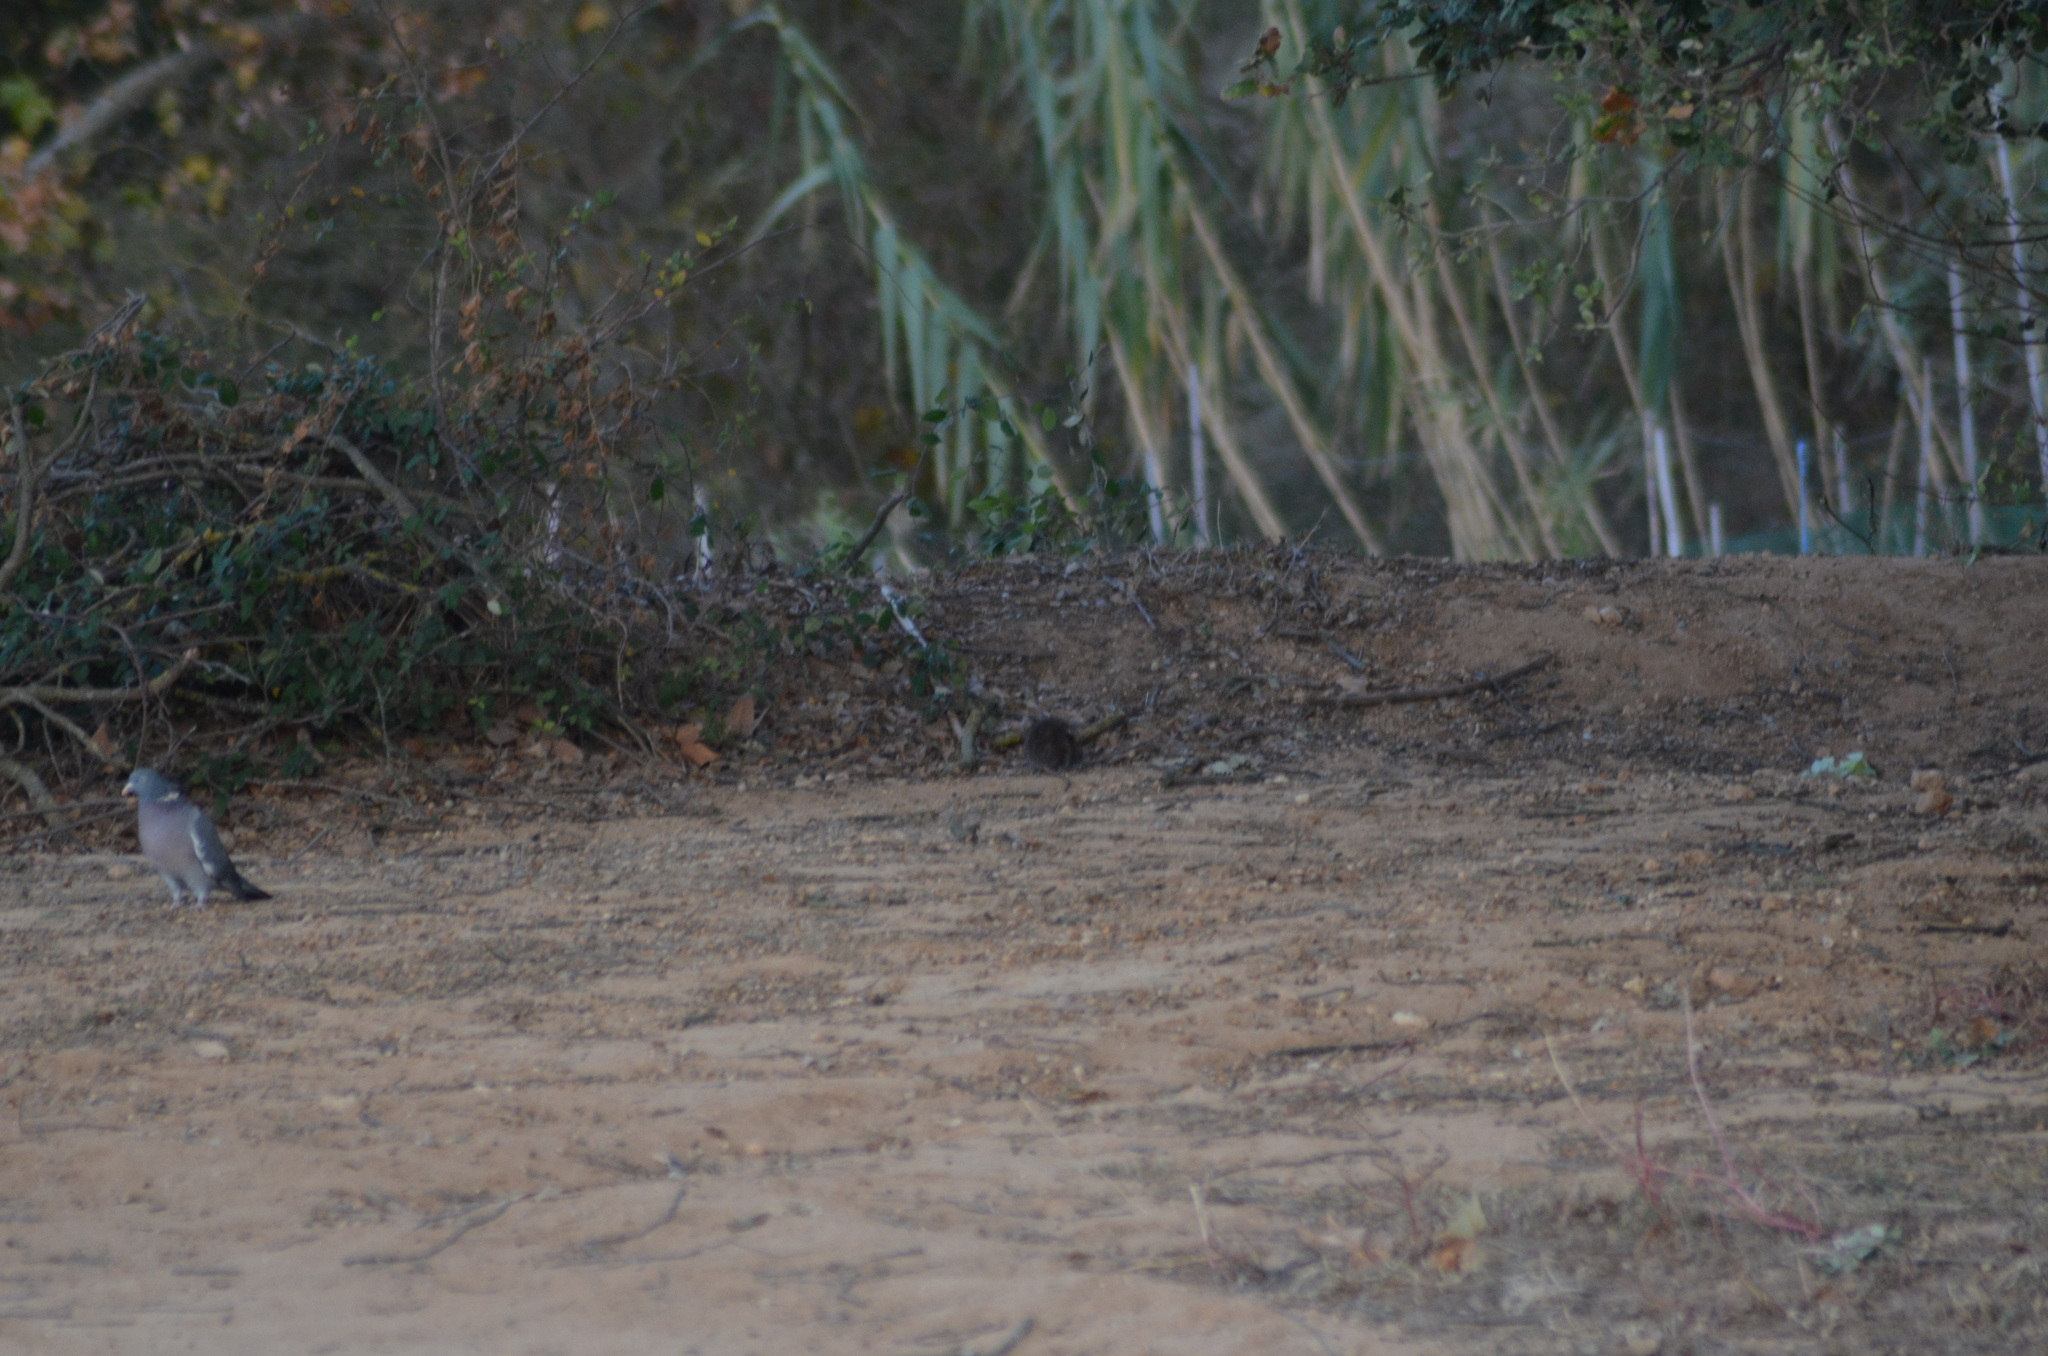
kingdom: Animalia
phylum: Chordata
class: Aves
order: Columbiformes
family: Columbidae
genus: Columba
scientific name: Columba palumbus
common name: Common wood pigeon
